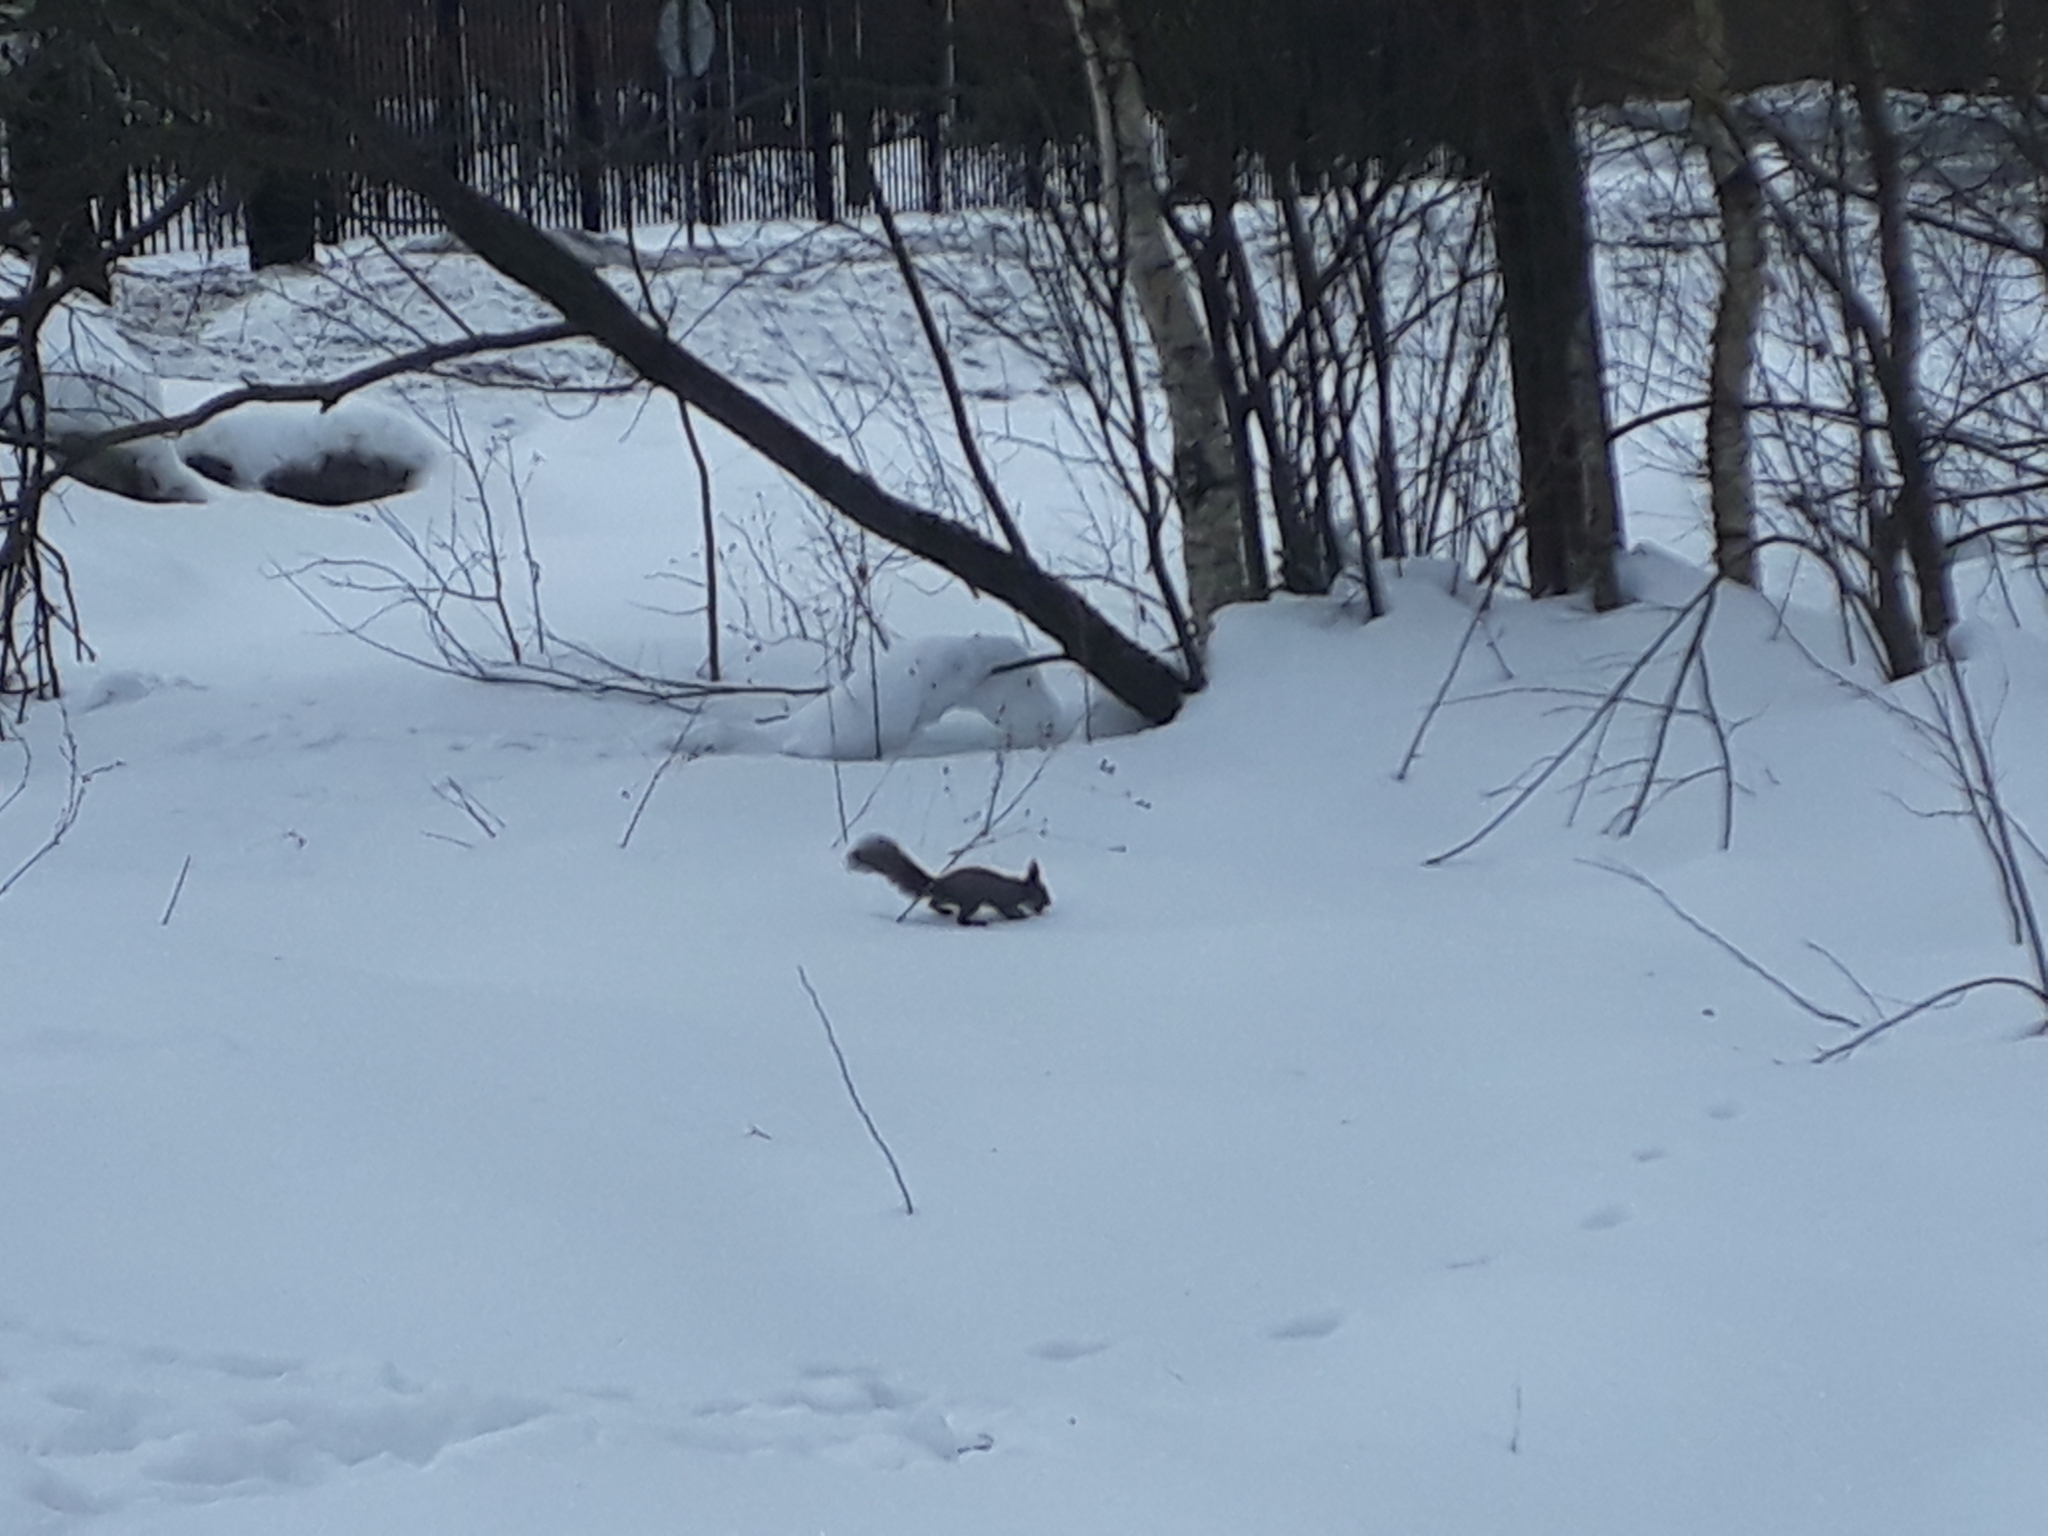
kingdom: Animalia
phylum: Chordata
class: Mammalia
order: Rodentia
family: Sciuridae
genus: Sciurus
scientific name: Sciurus vulgaris
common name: Eurasian red squirrel
